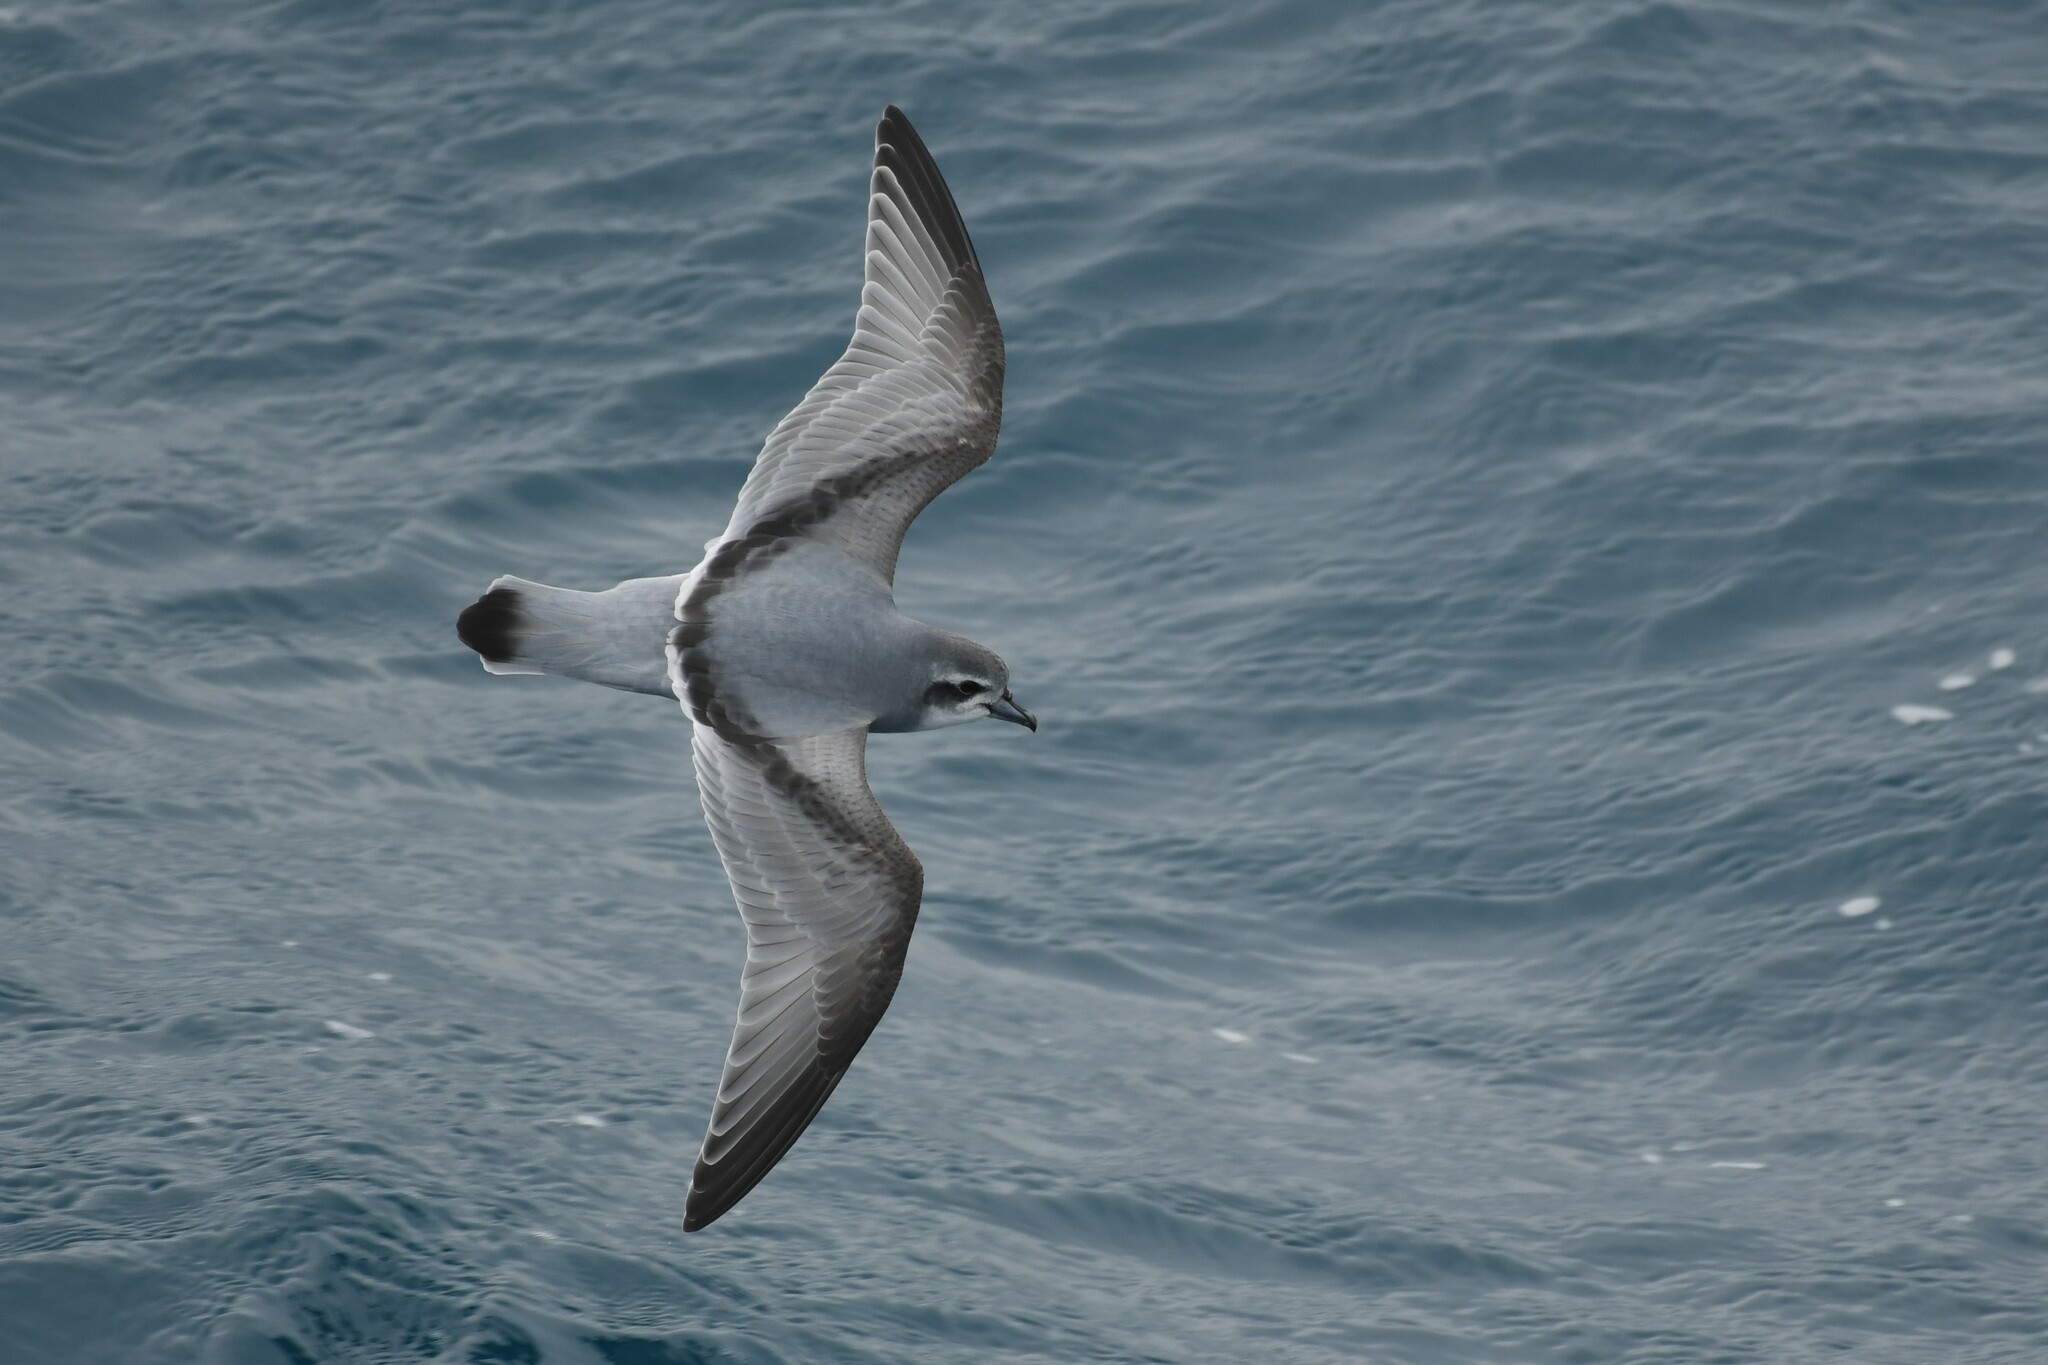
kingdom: Animalia
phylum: Chordata
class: Aves
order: Procellariiformes
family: Procellariidae
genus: Pachyptila
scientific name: Pachyptila desolata
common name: Antarctic prion
